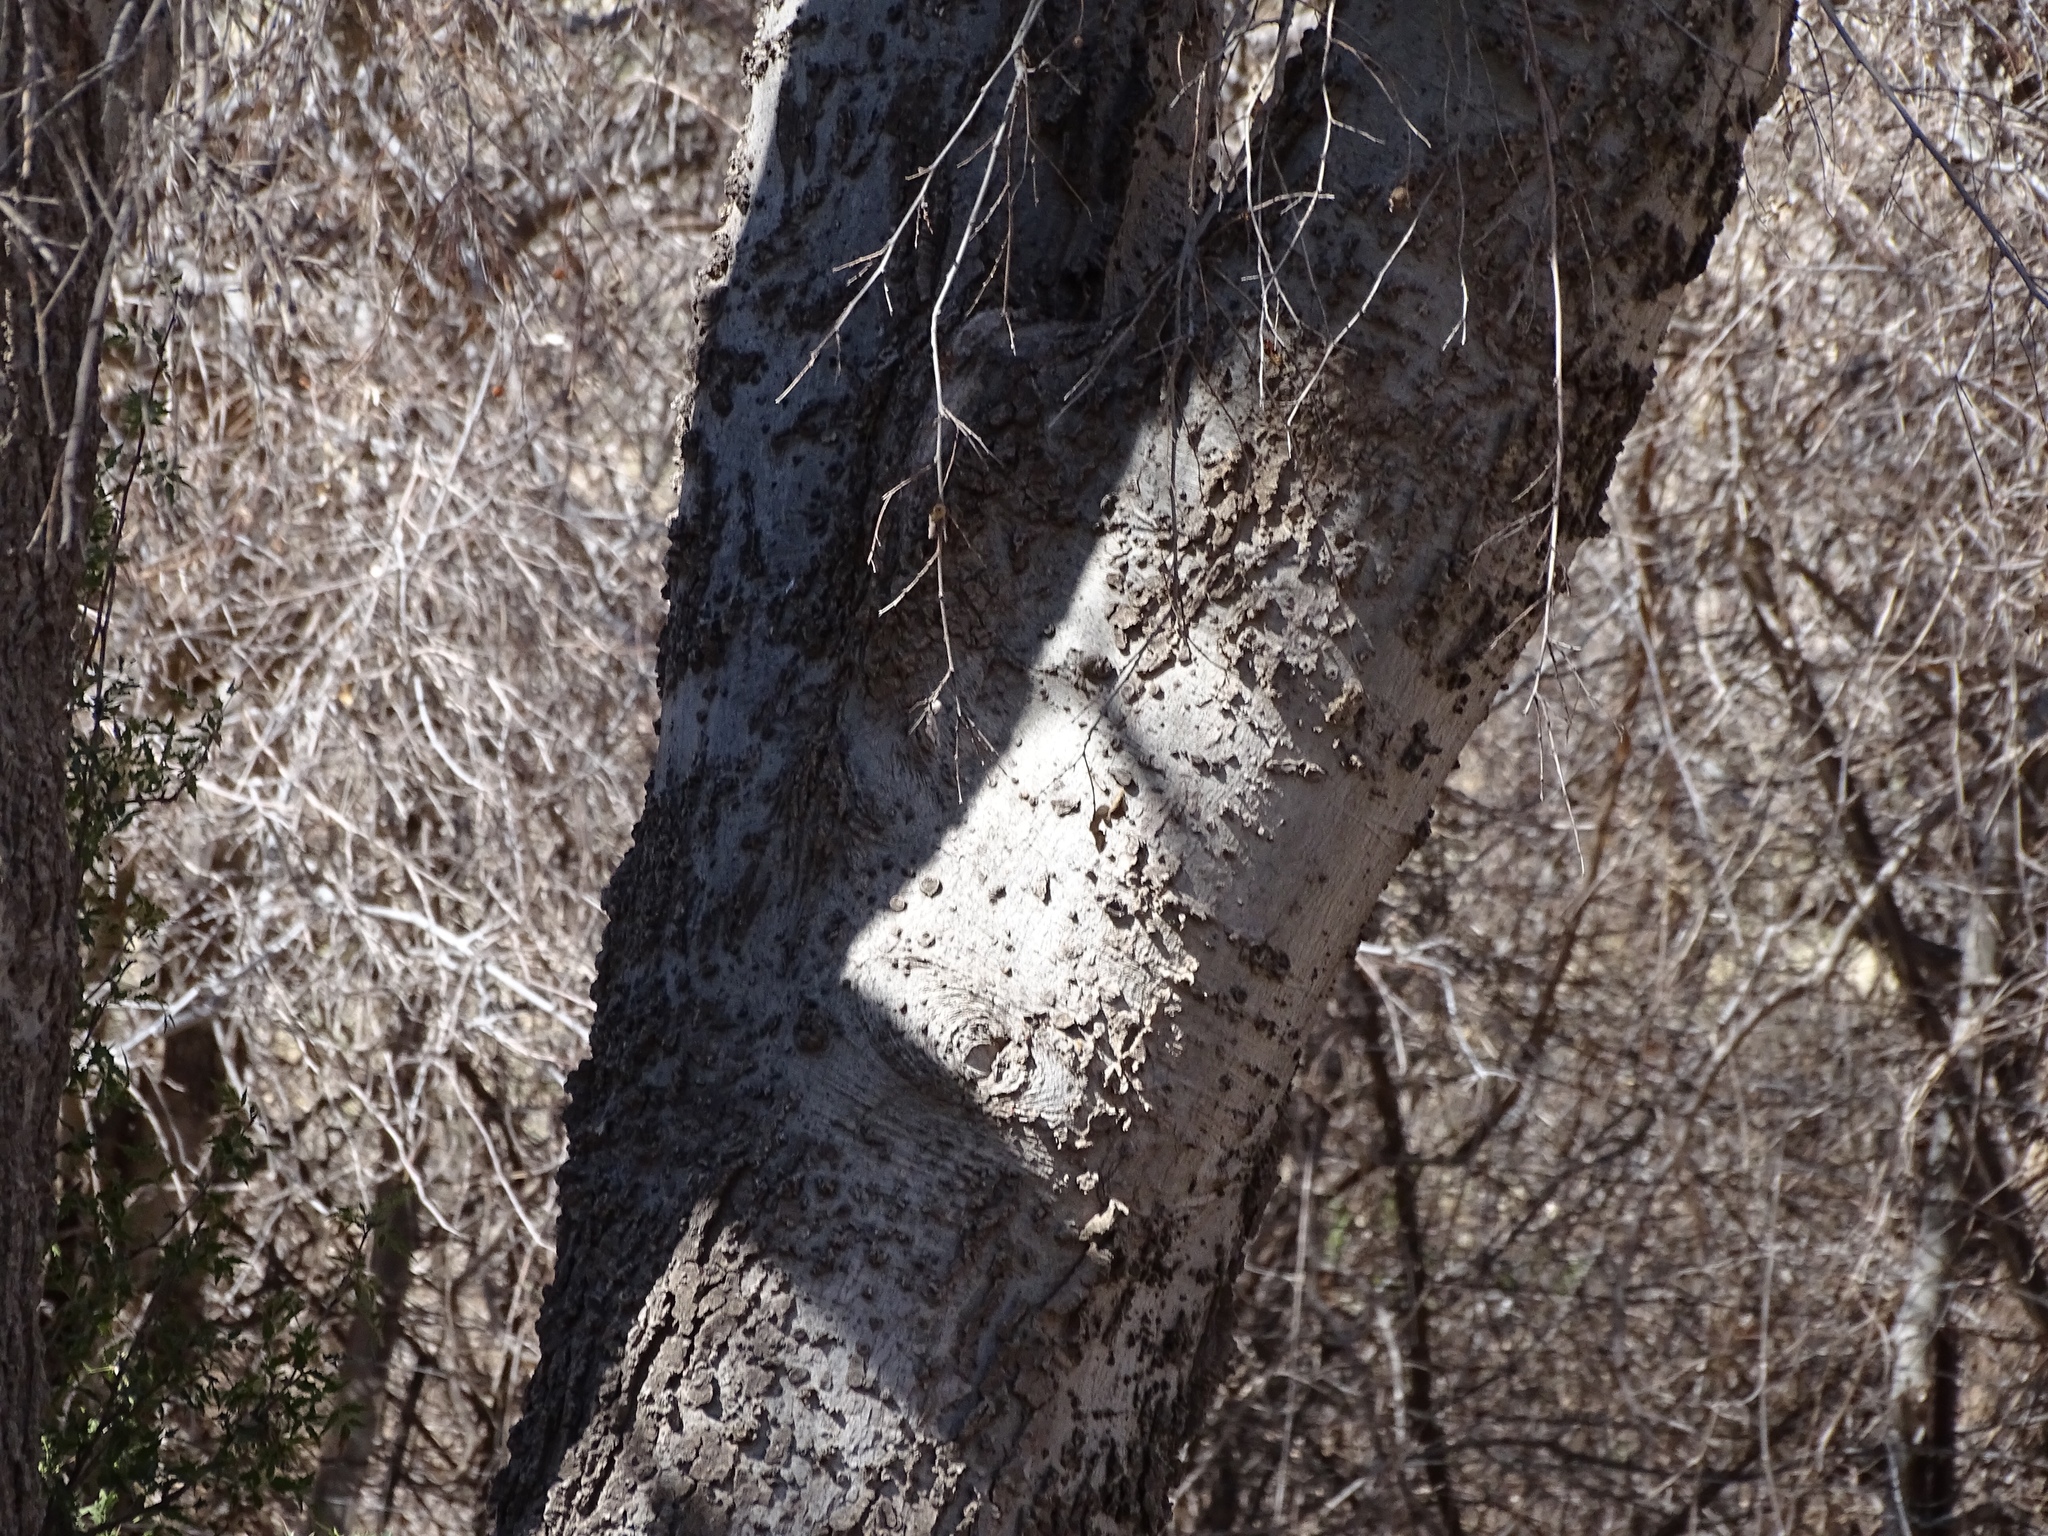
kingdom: Plantae
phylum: Tracheophyta
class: Magnoliopsida
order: Rosales
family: Cannabaceae
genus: Celtis
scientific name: Celtis reticulata
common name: Netleaf hackberry
